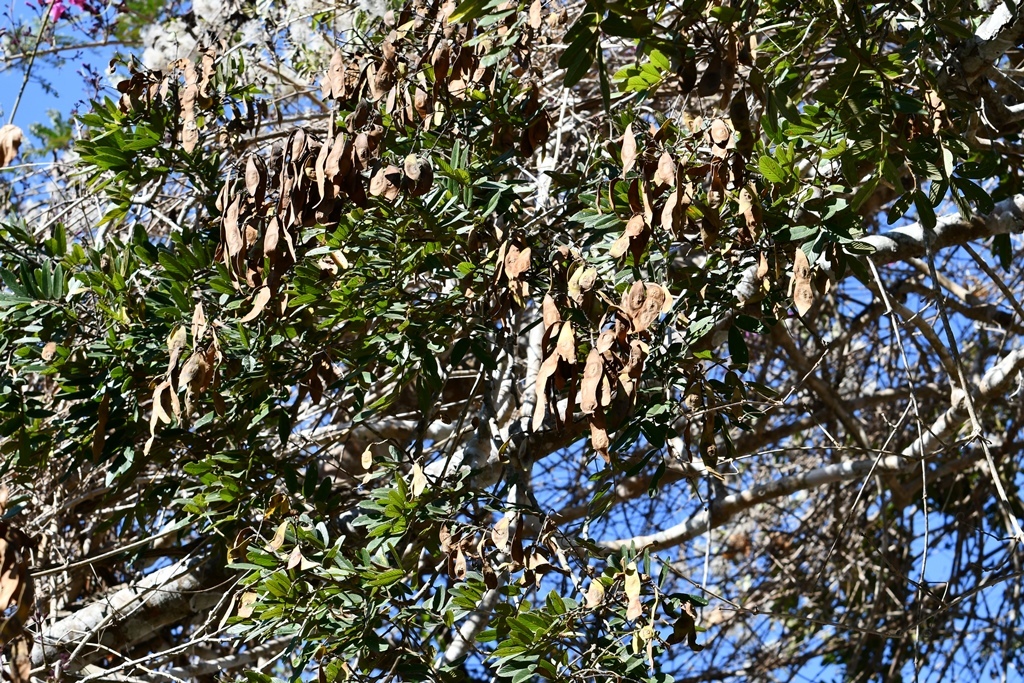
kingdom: Plantae
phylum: Tracheophyta
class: Magnoliopsida
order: Fabales
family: Fabaceae
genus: Lonchocarpus
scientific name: Lonchocarpus rugosus
